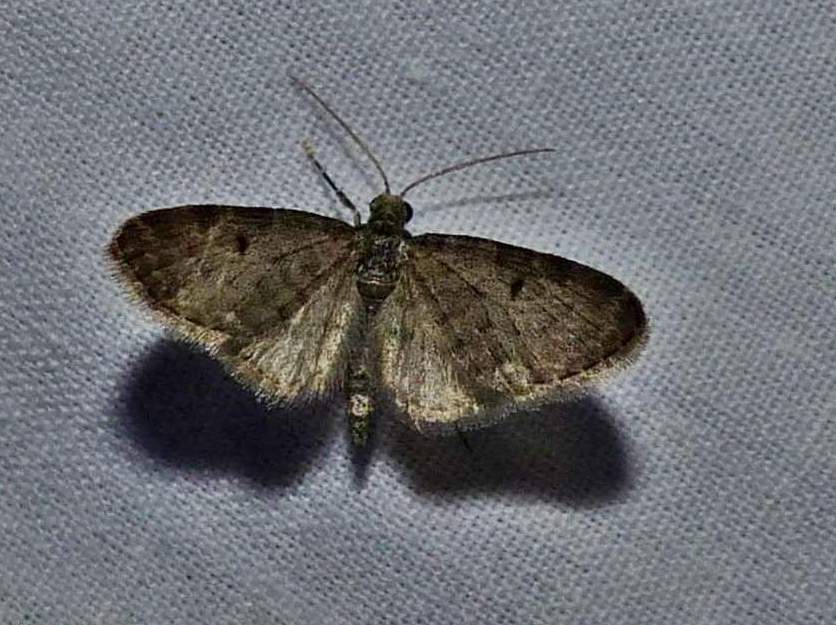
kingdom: Animalia
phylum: Arthropoda
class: Insecta
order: Lepidoptera
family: Geometridae
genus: Eupithecia
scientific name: Eupithecia miserulata
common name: Common eupithecia
